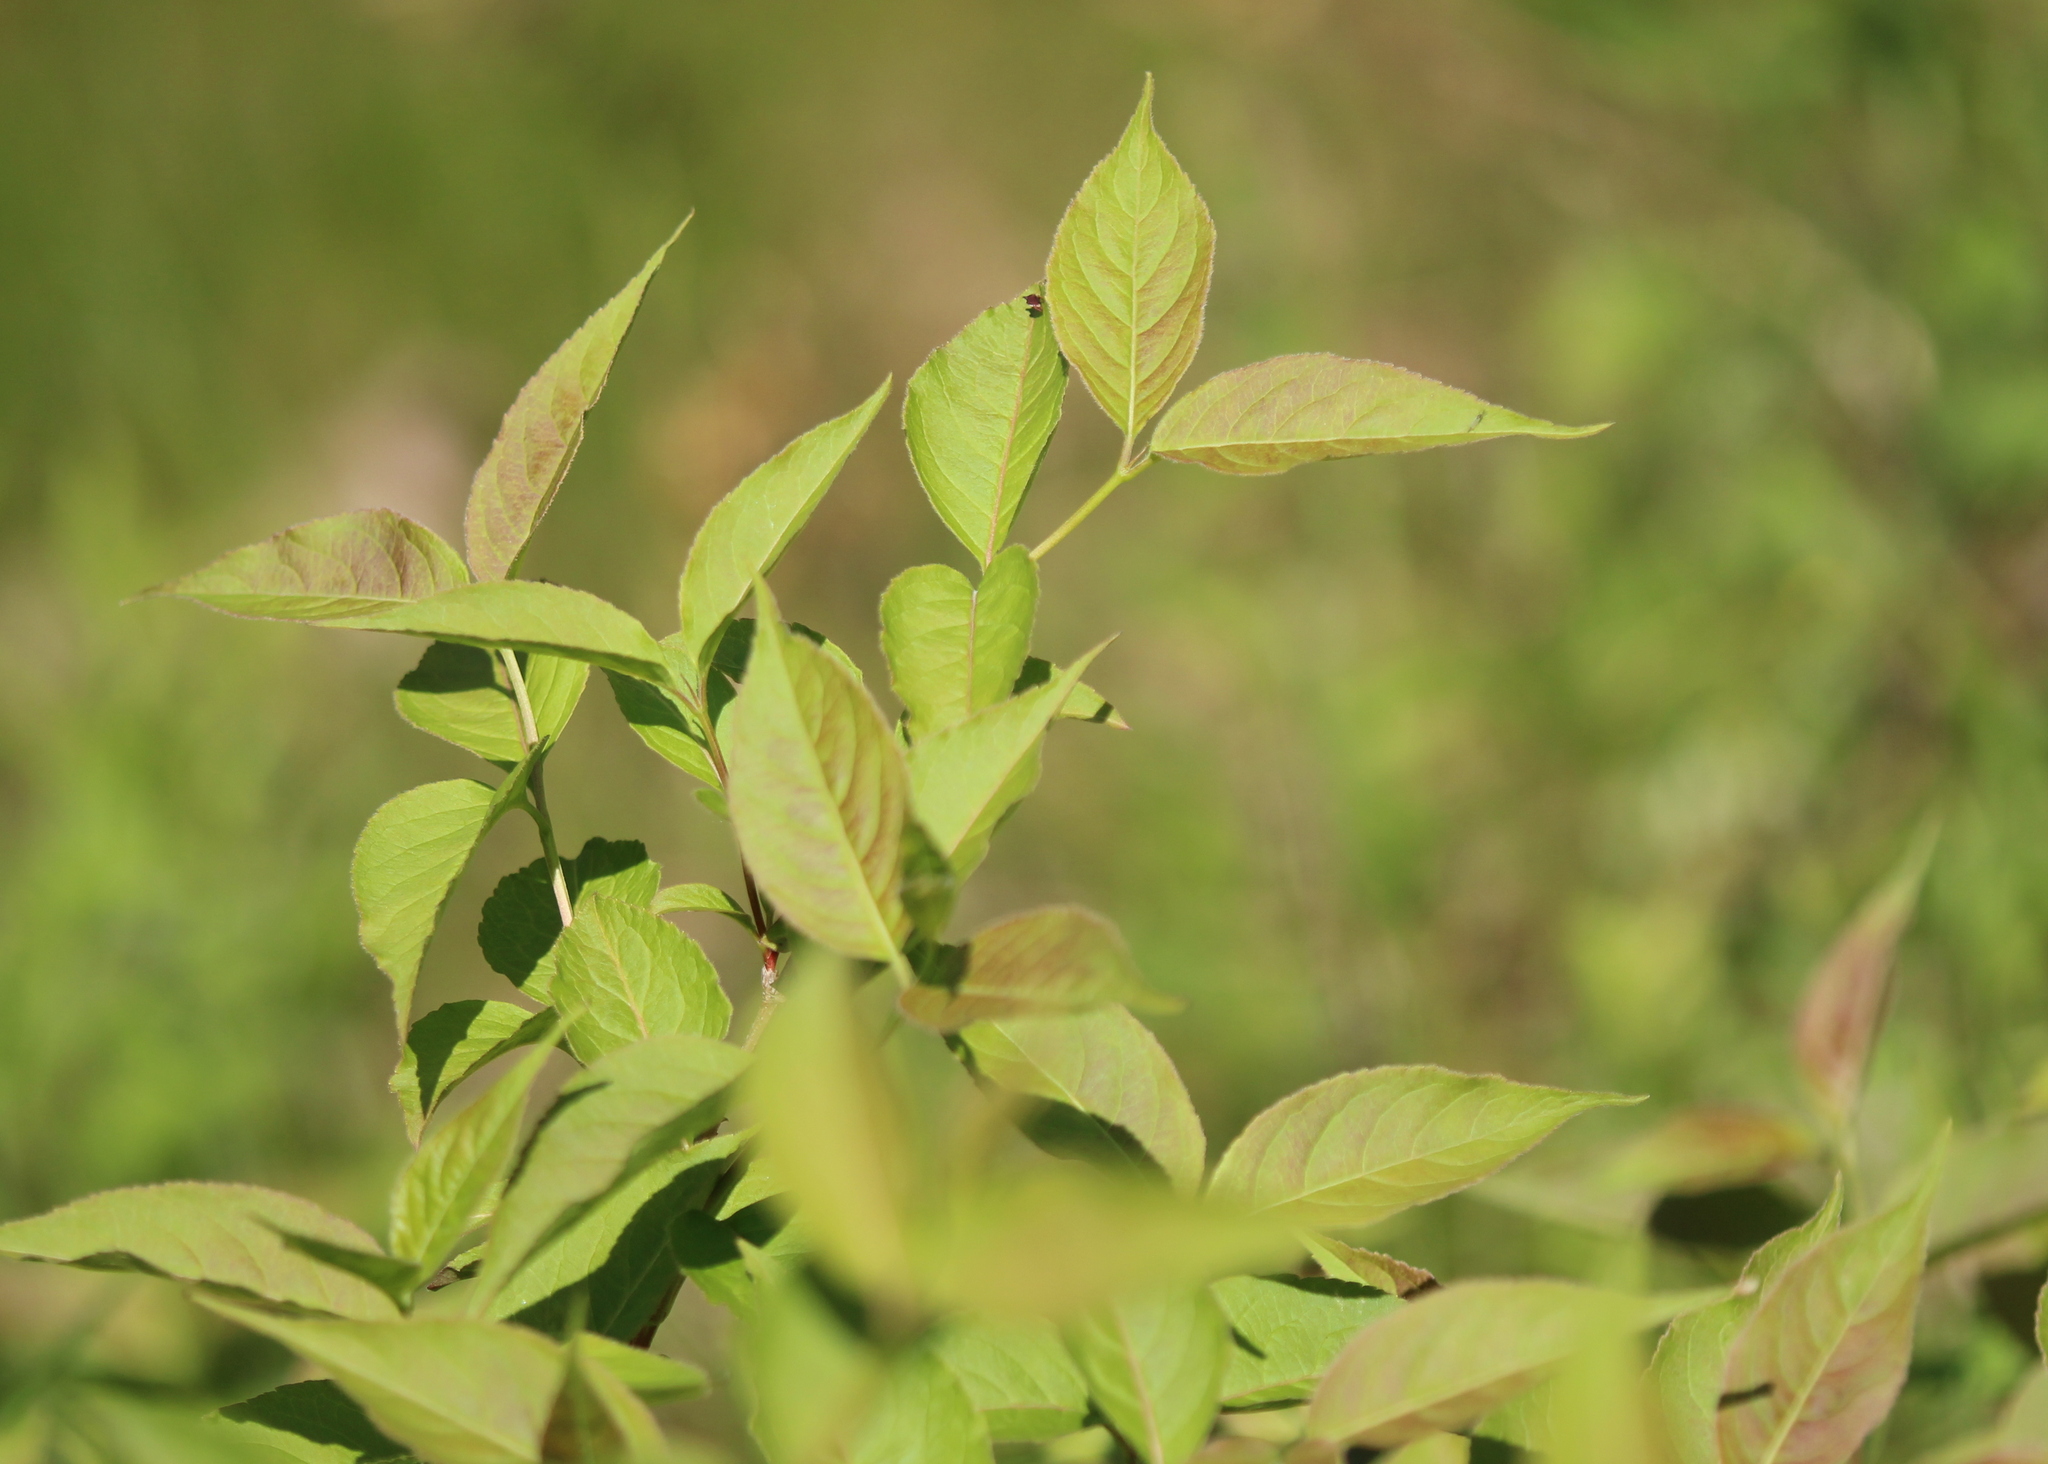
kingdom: Plantae
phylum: Tracheophyta
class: Magnoliopsida
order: Dipsacales
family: Caprifoliaceae
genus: Diervilla
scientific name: Diervilla lonicera
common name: Bush-honeysuckle
